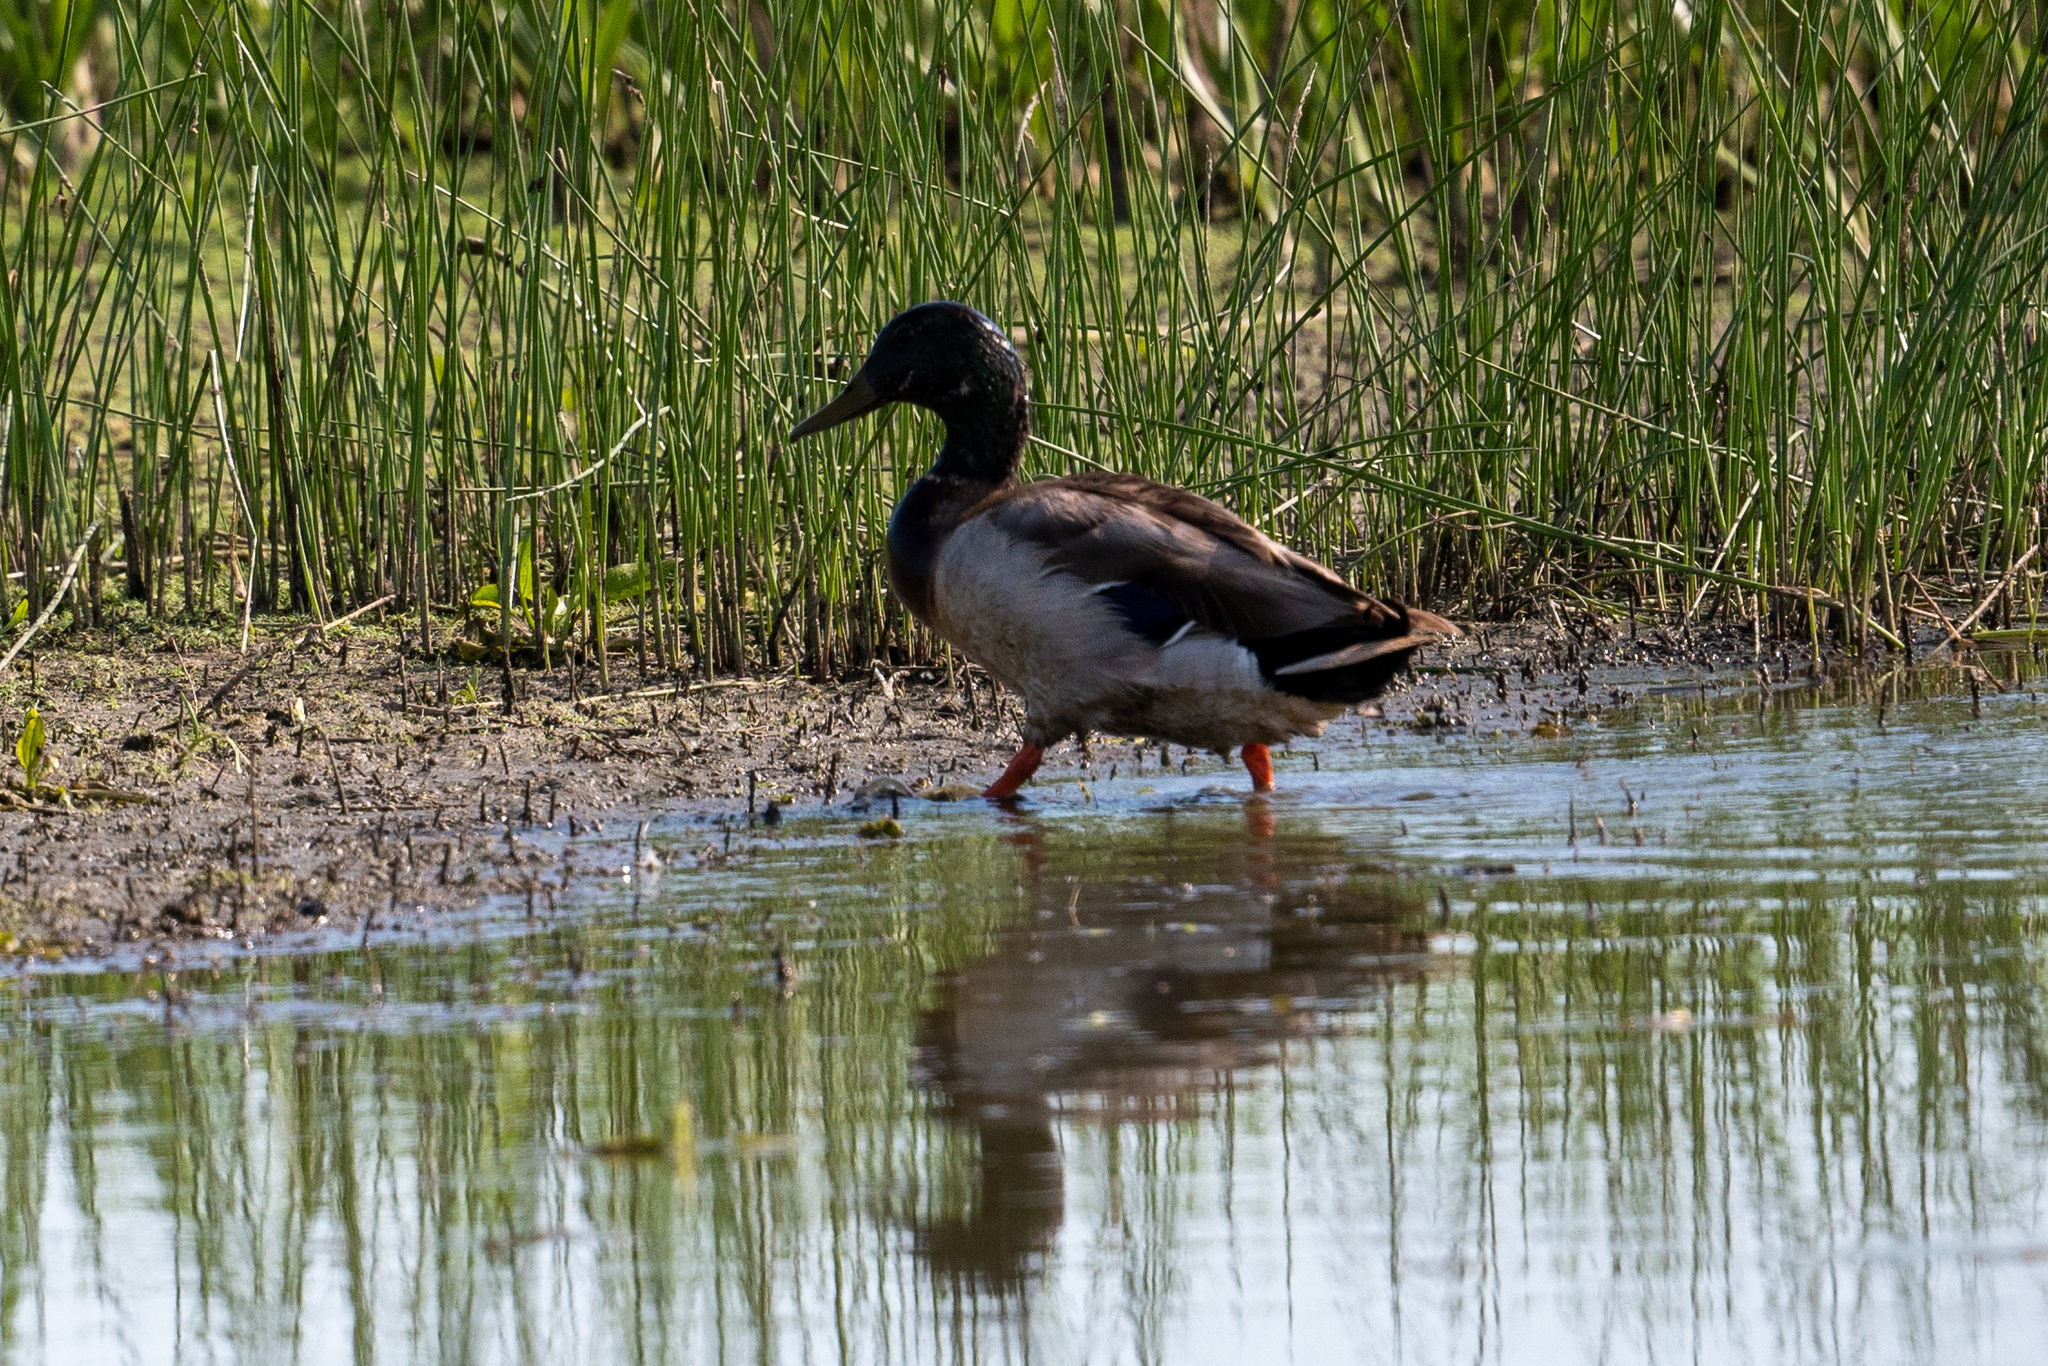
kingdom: Animalia
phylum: Chordata
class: Aves
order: Anseriformes
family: Anatidae
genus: Anas
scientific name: Anas platyrhynchos
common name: Mallard
